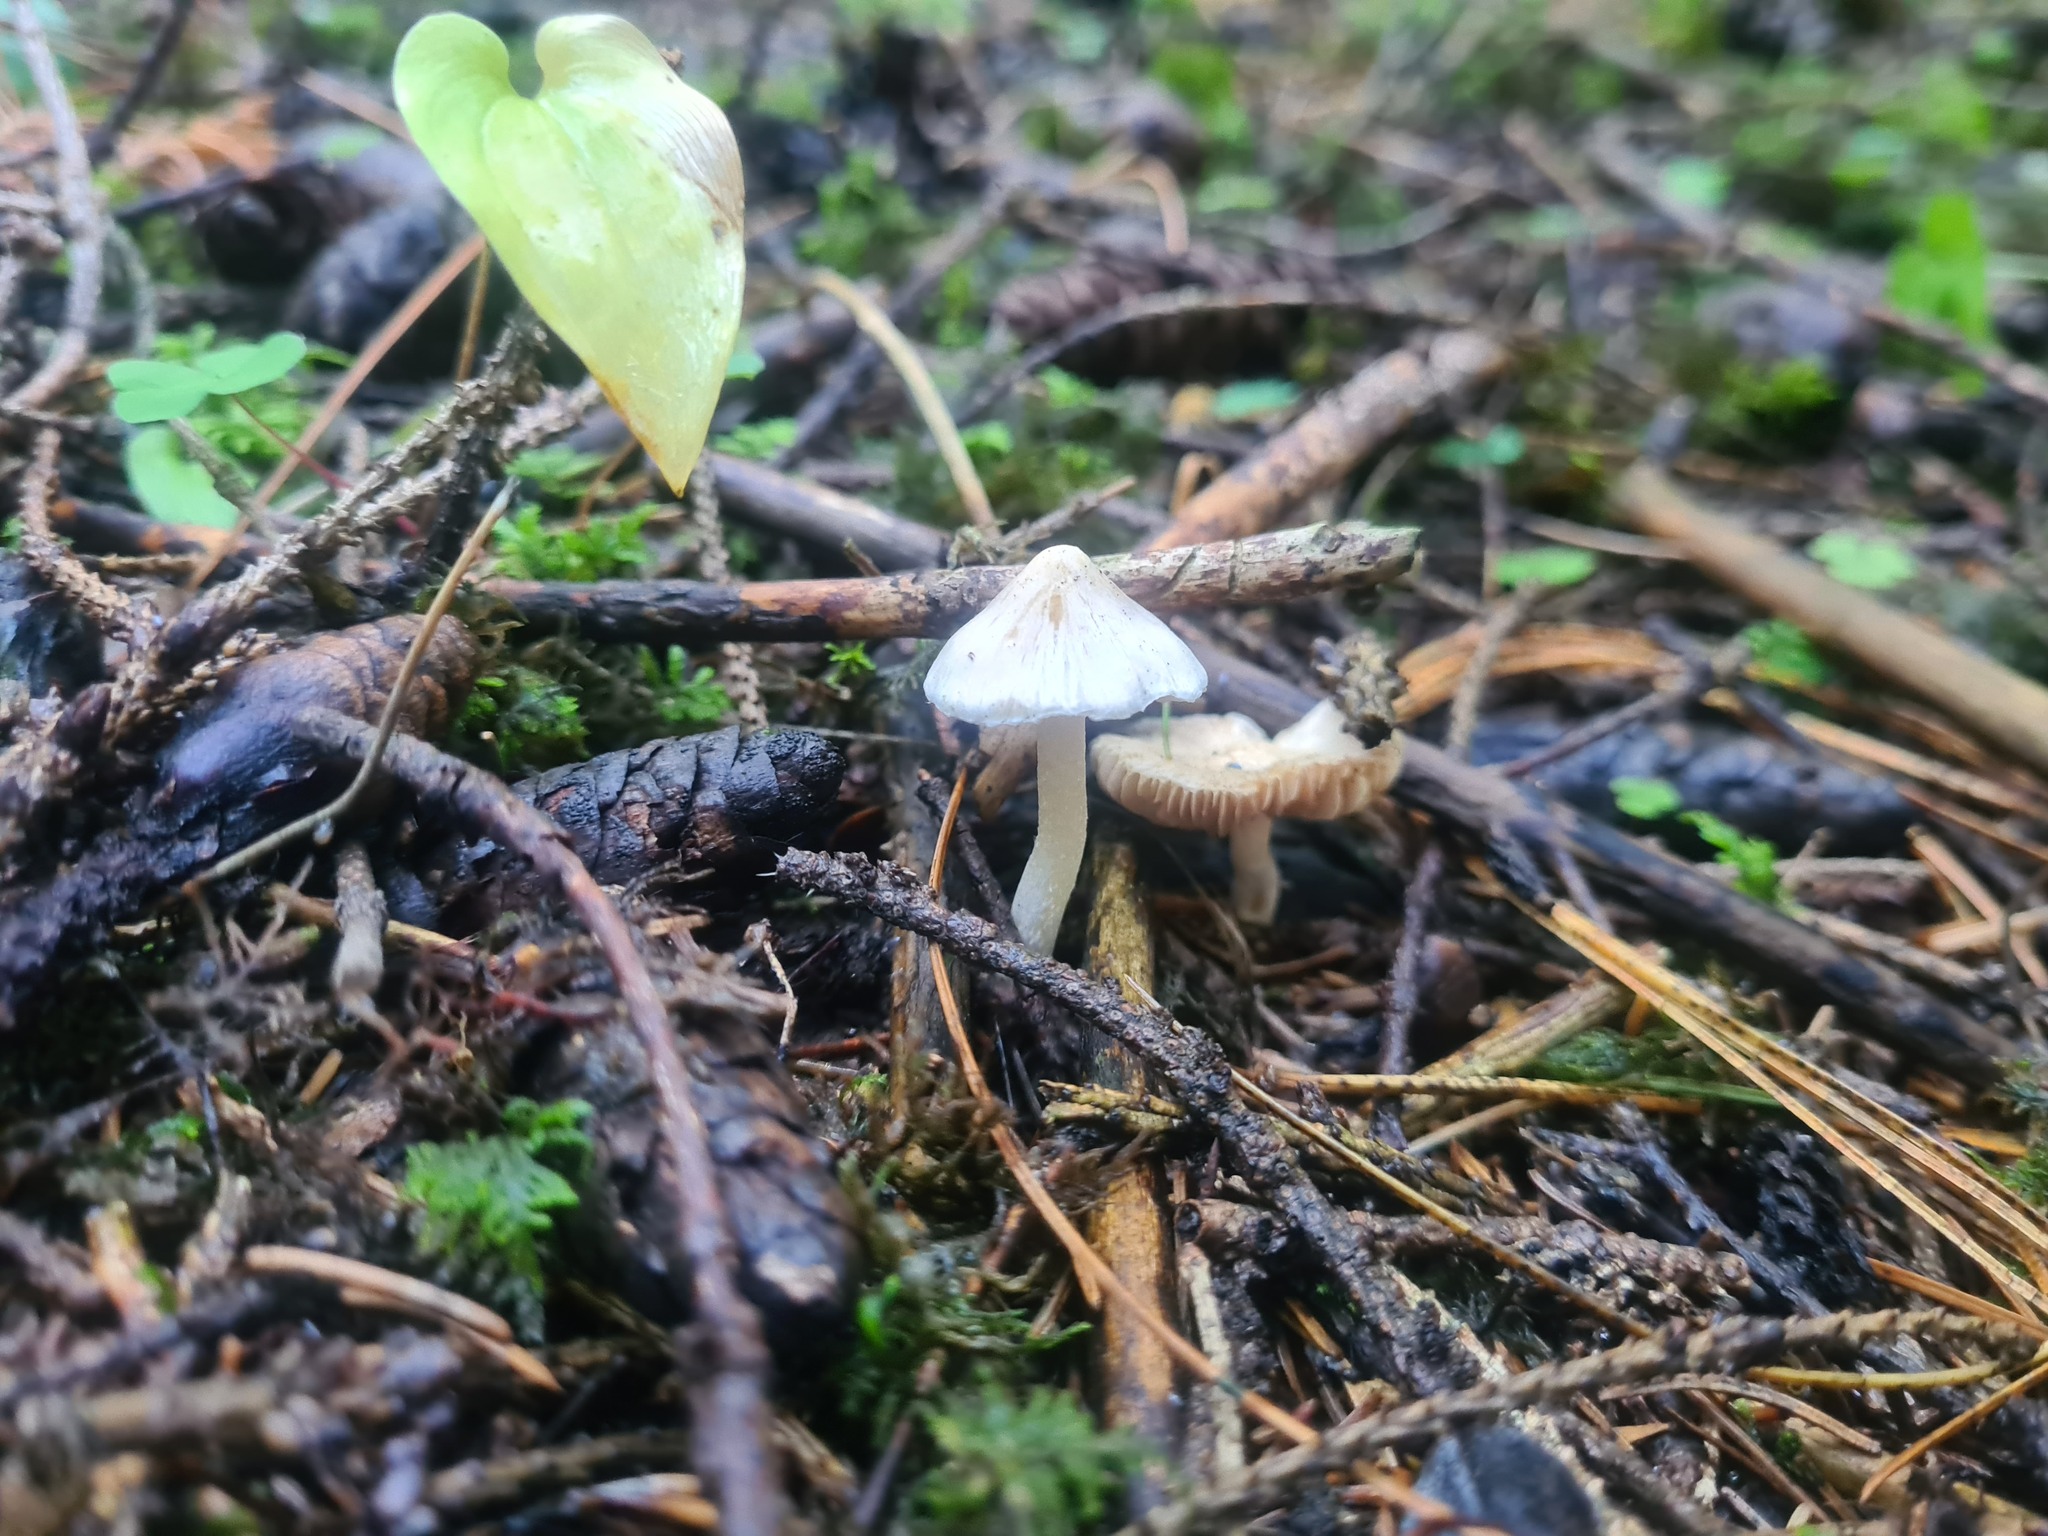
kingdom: Fungi
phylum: Basidiomycota
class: Agaricomycetes
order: Agaricales
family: Inocybaceae
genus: Inocybe
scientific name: Inocybe geophylla
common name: White fibrecap
